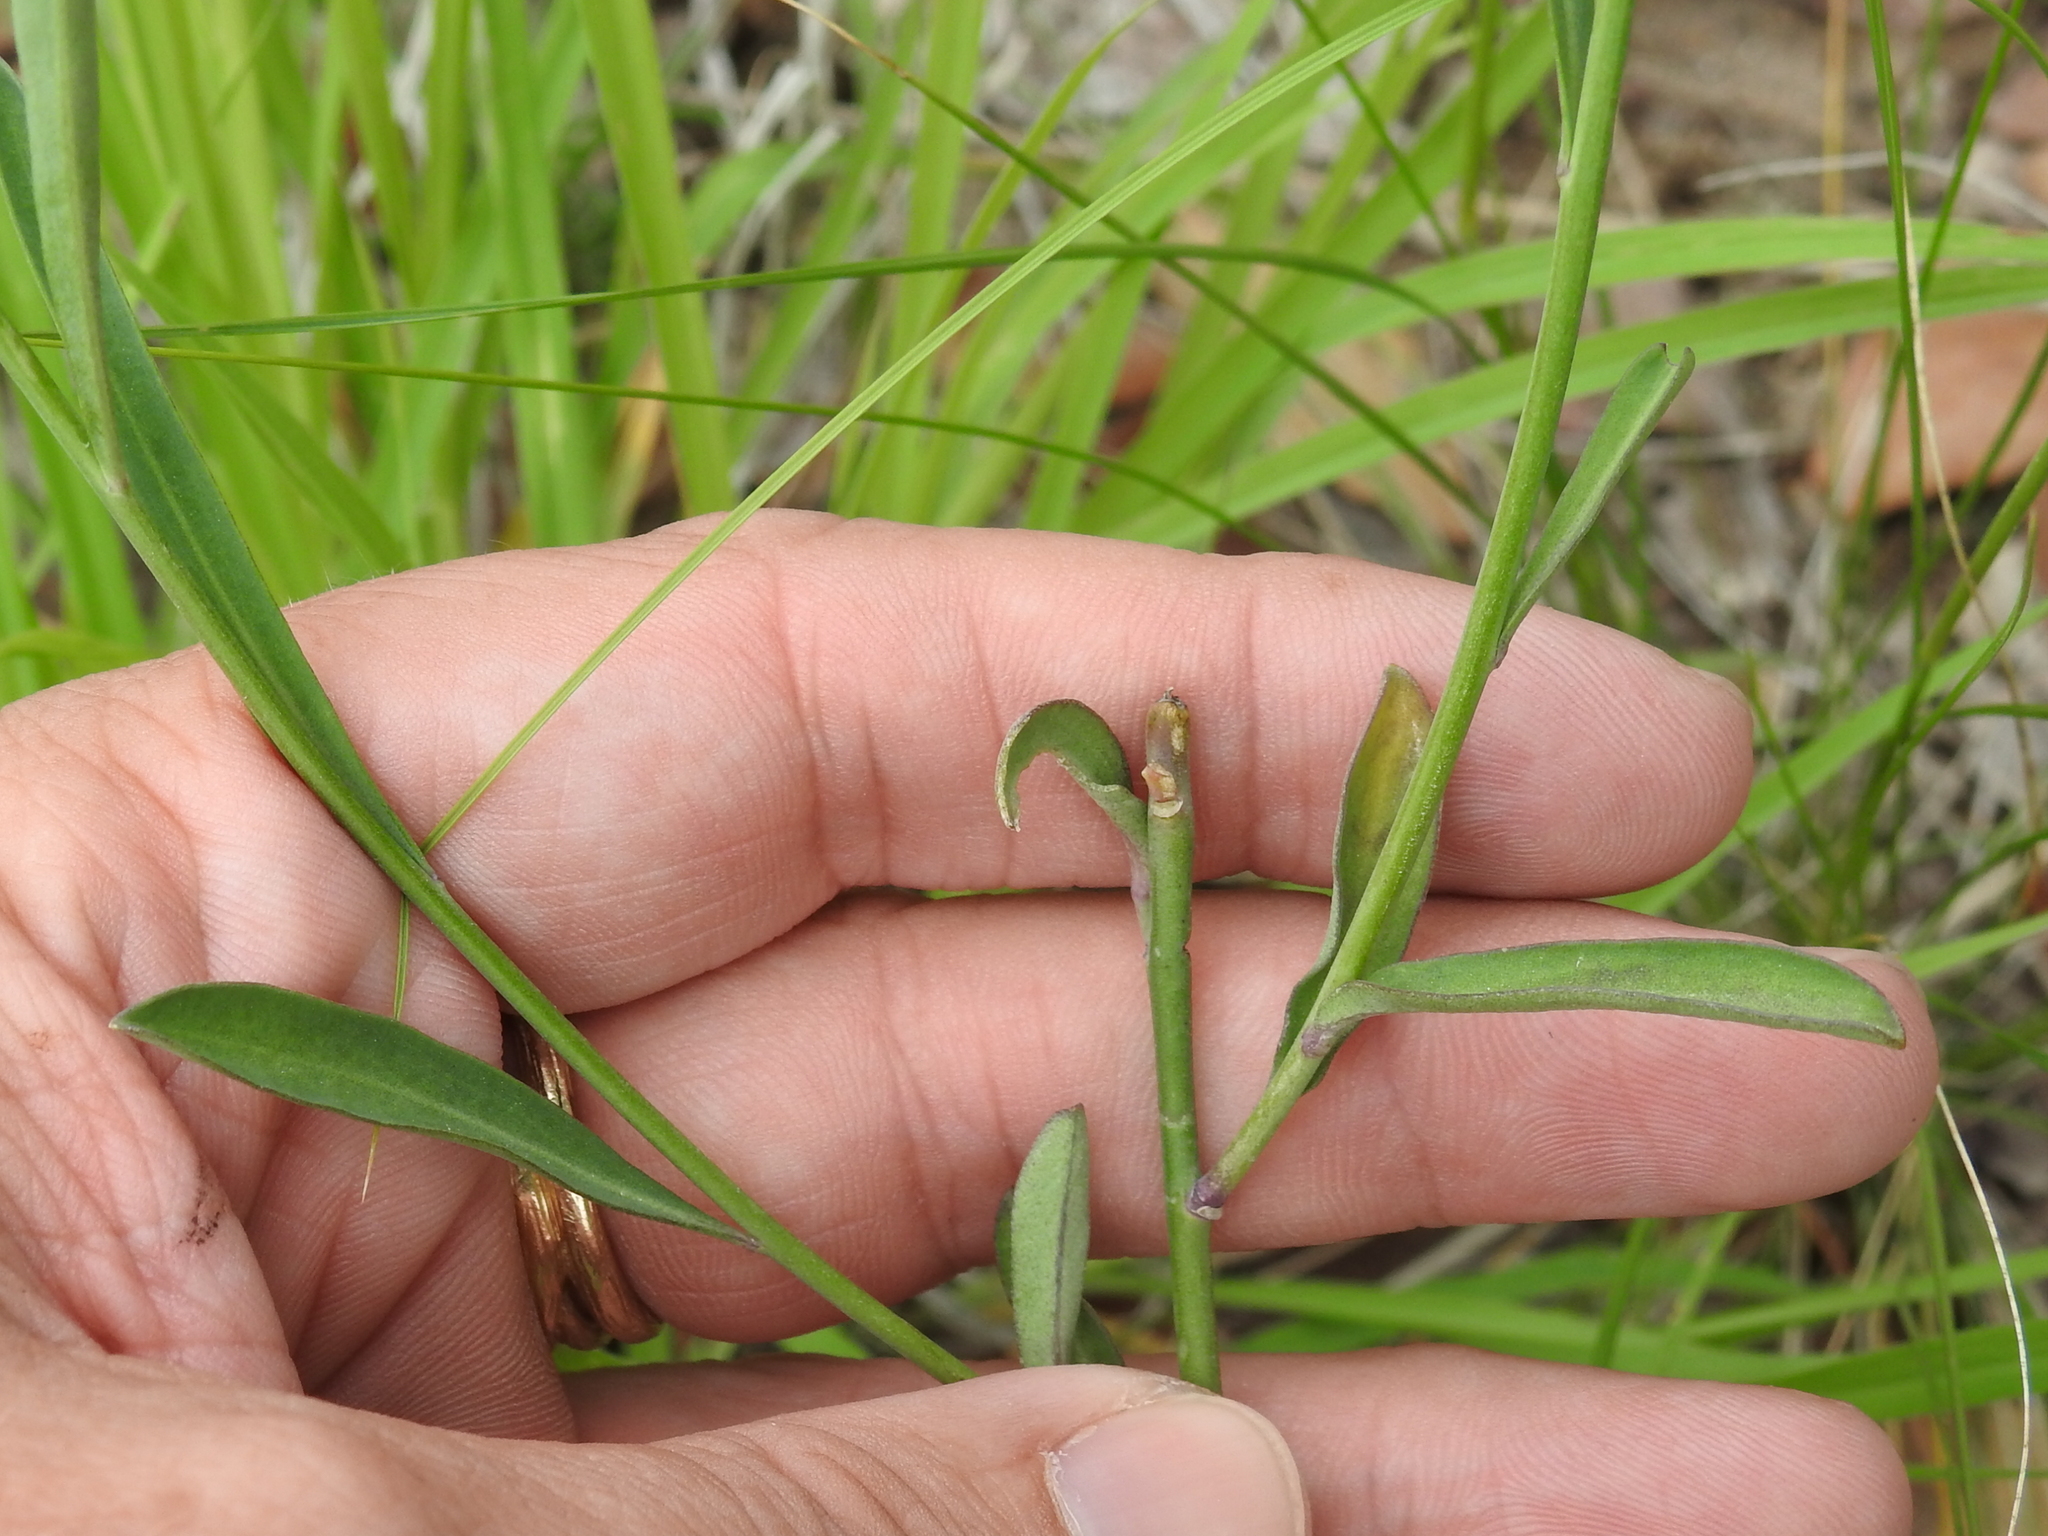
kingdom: Plantae
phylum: Tracheophyta
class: Magnoliopsida
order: Brassicales
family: Brassicaceae
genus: Hesperidanthus
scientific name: Hesperidanthus linearifolius
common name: Slim-leaf plains mustard
